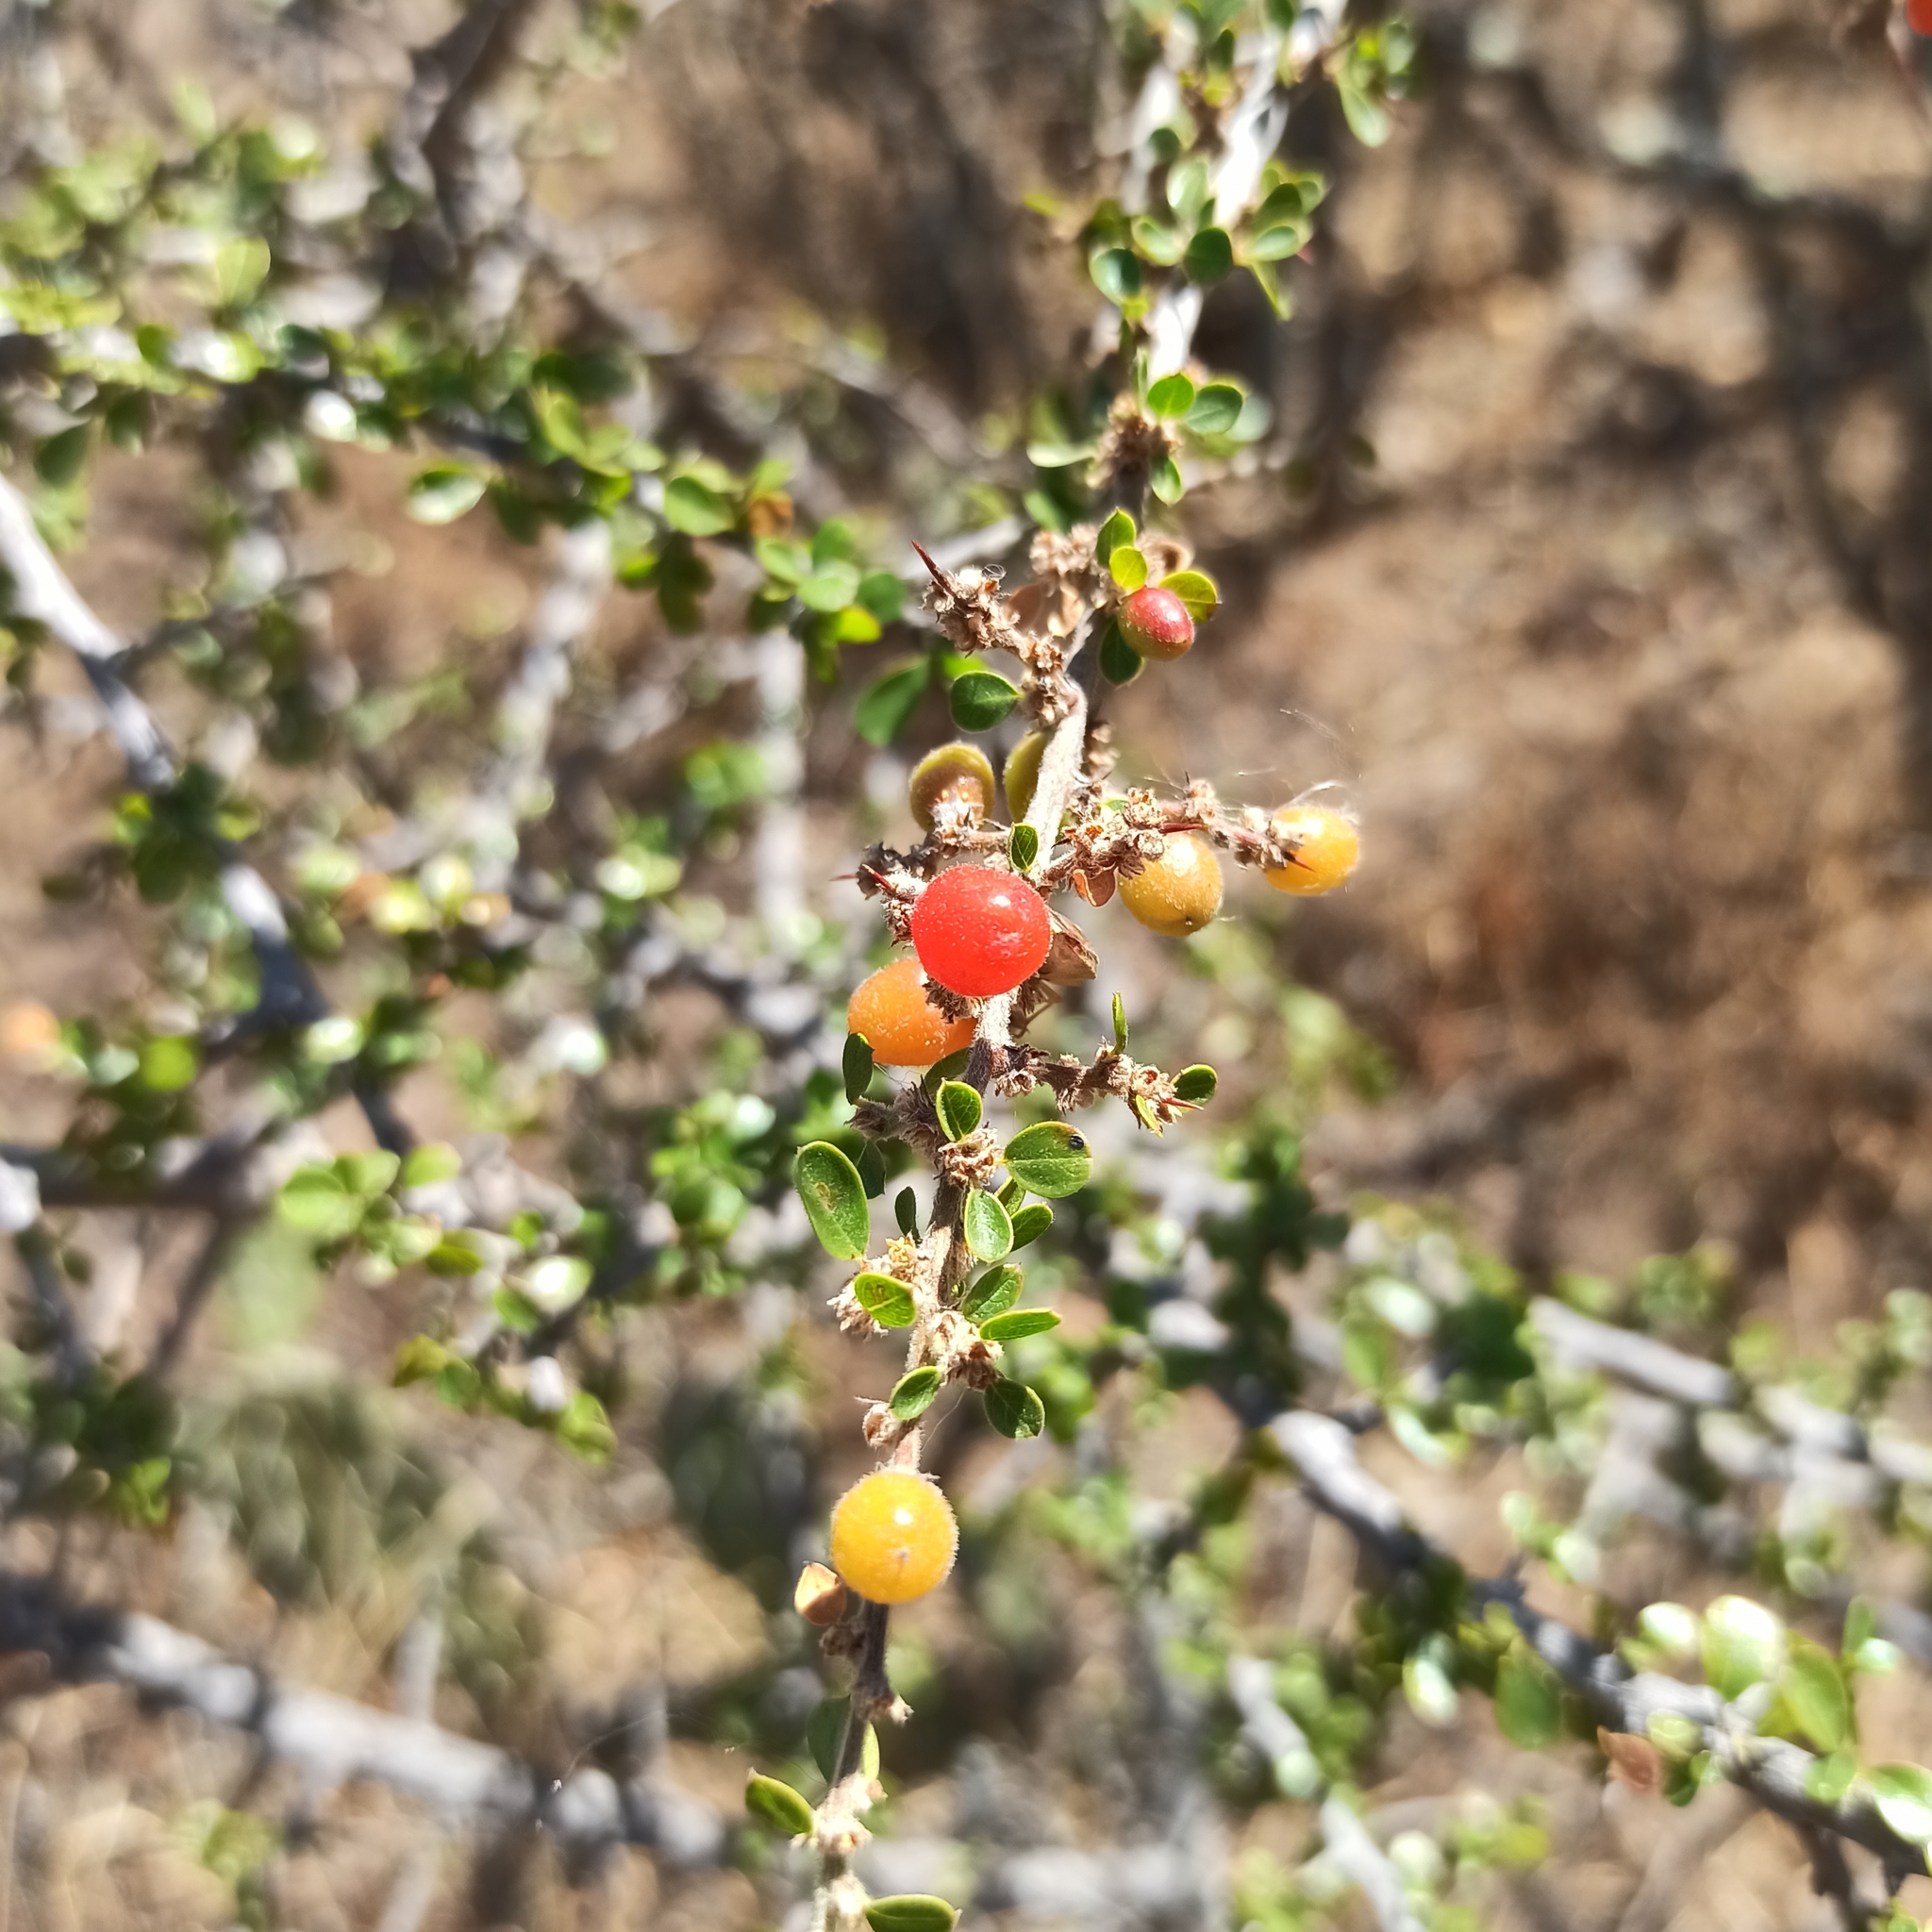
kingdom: Plantae
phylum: Tracheophyta
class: Magnoliopsida
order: Rosales
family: Rhamnaceae
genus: Condalia
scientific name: Condalia velutina
